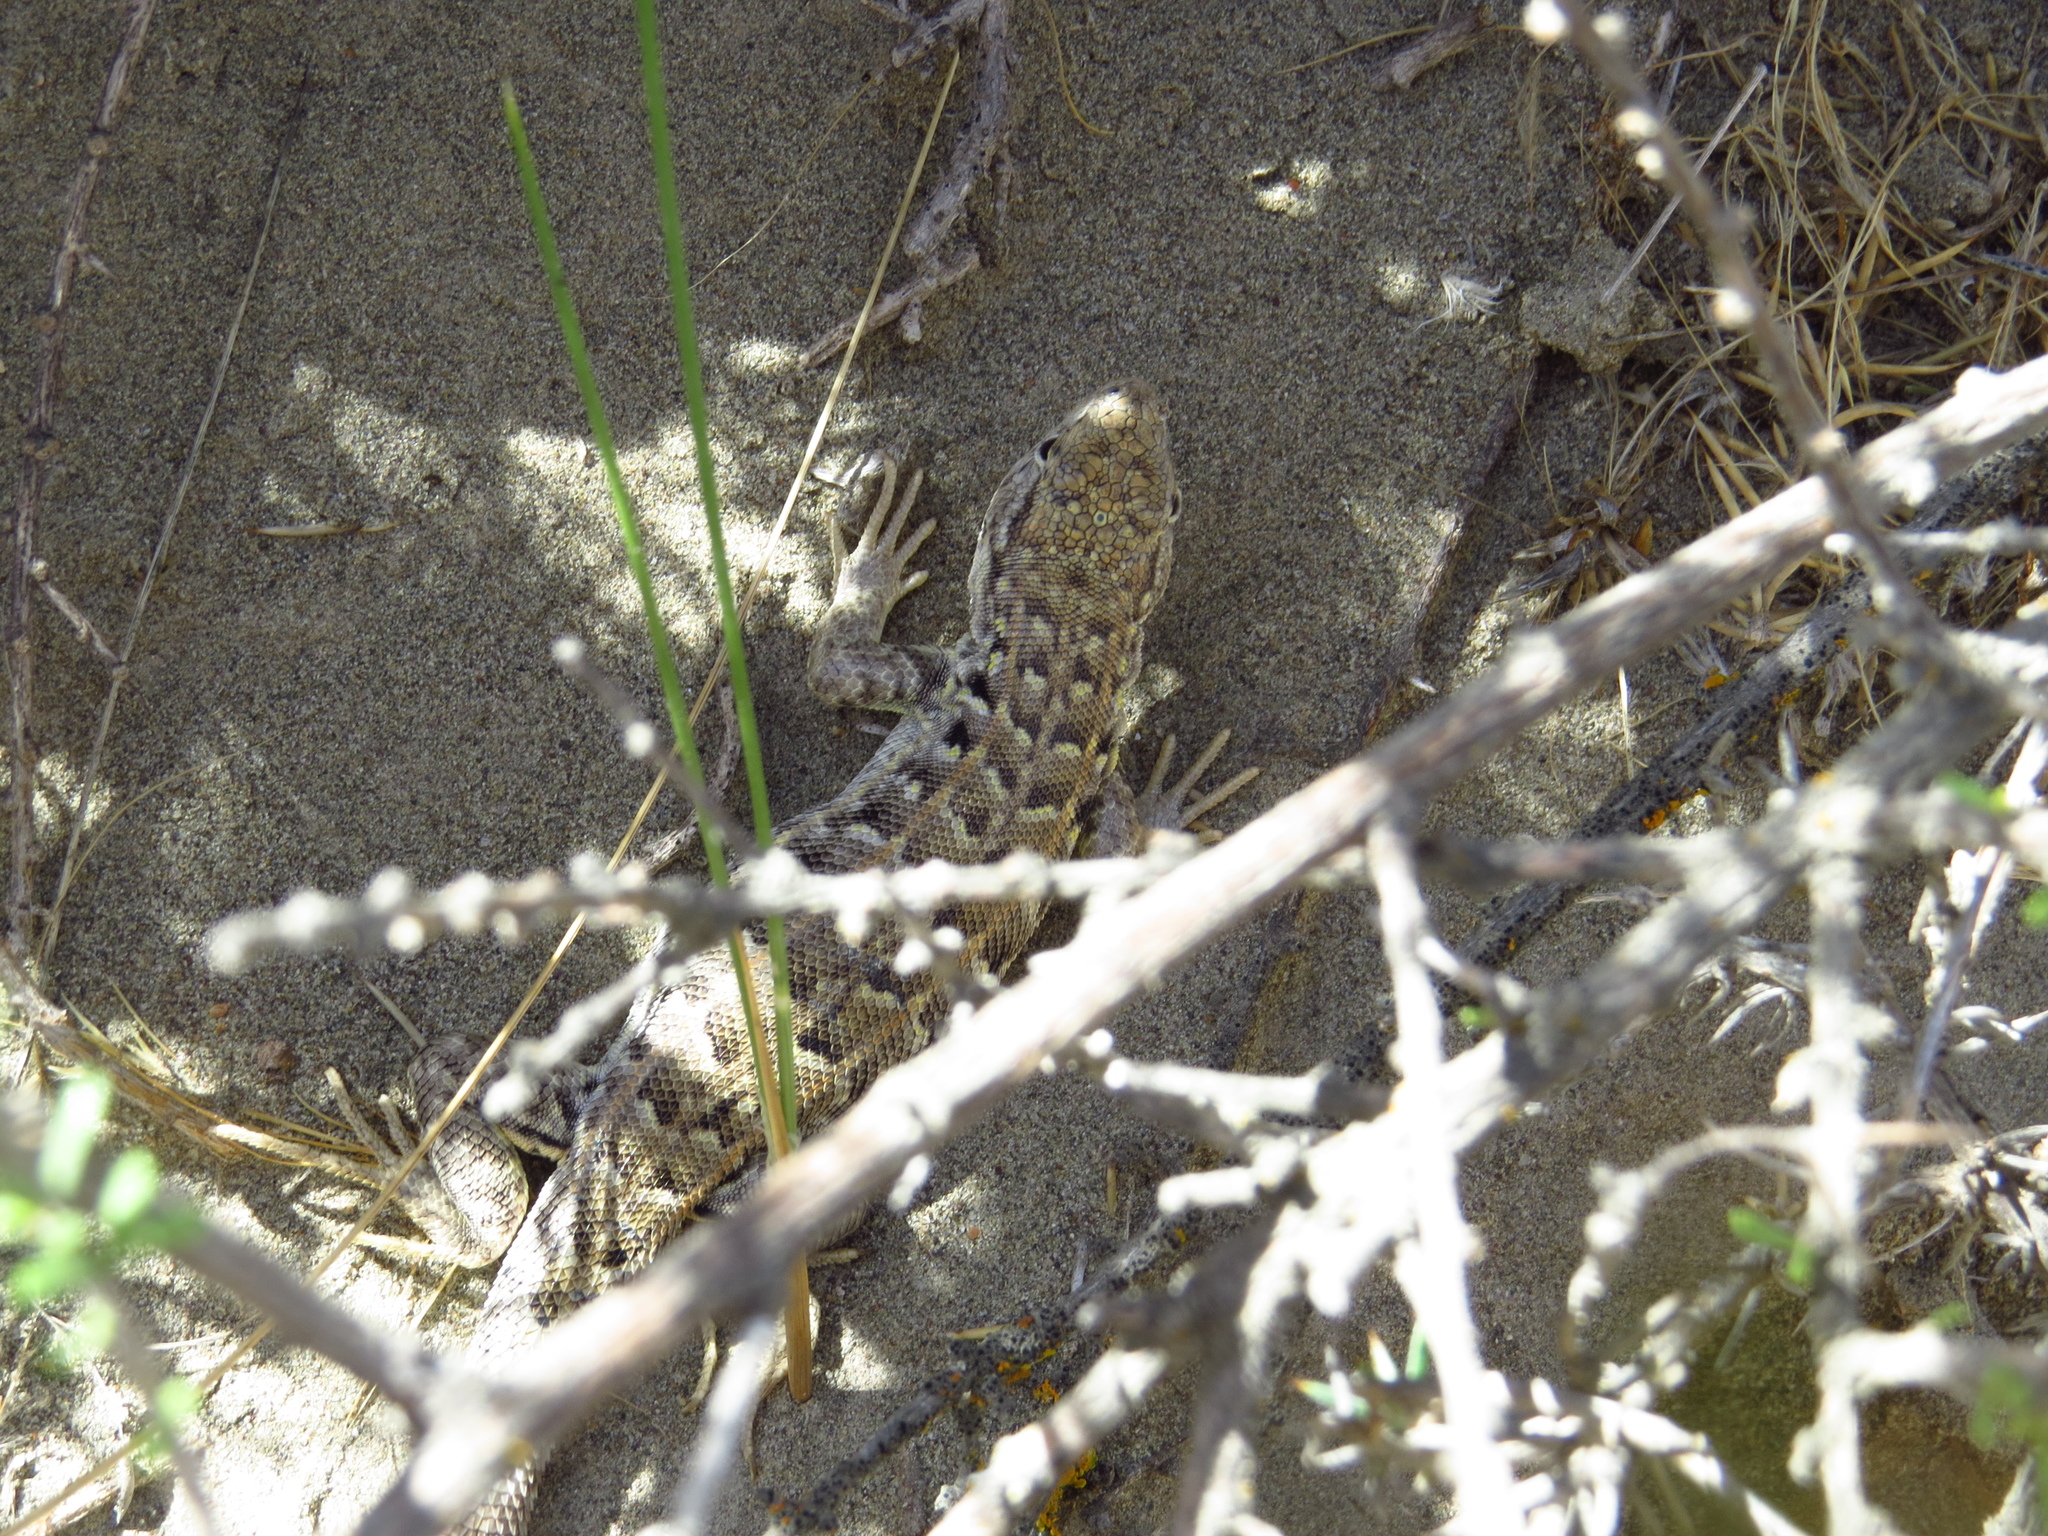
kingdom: Animalia
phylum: Chordata
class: Squamata
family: Liolaemidae
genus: Liolaemus
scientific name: Liolaemus martorii
